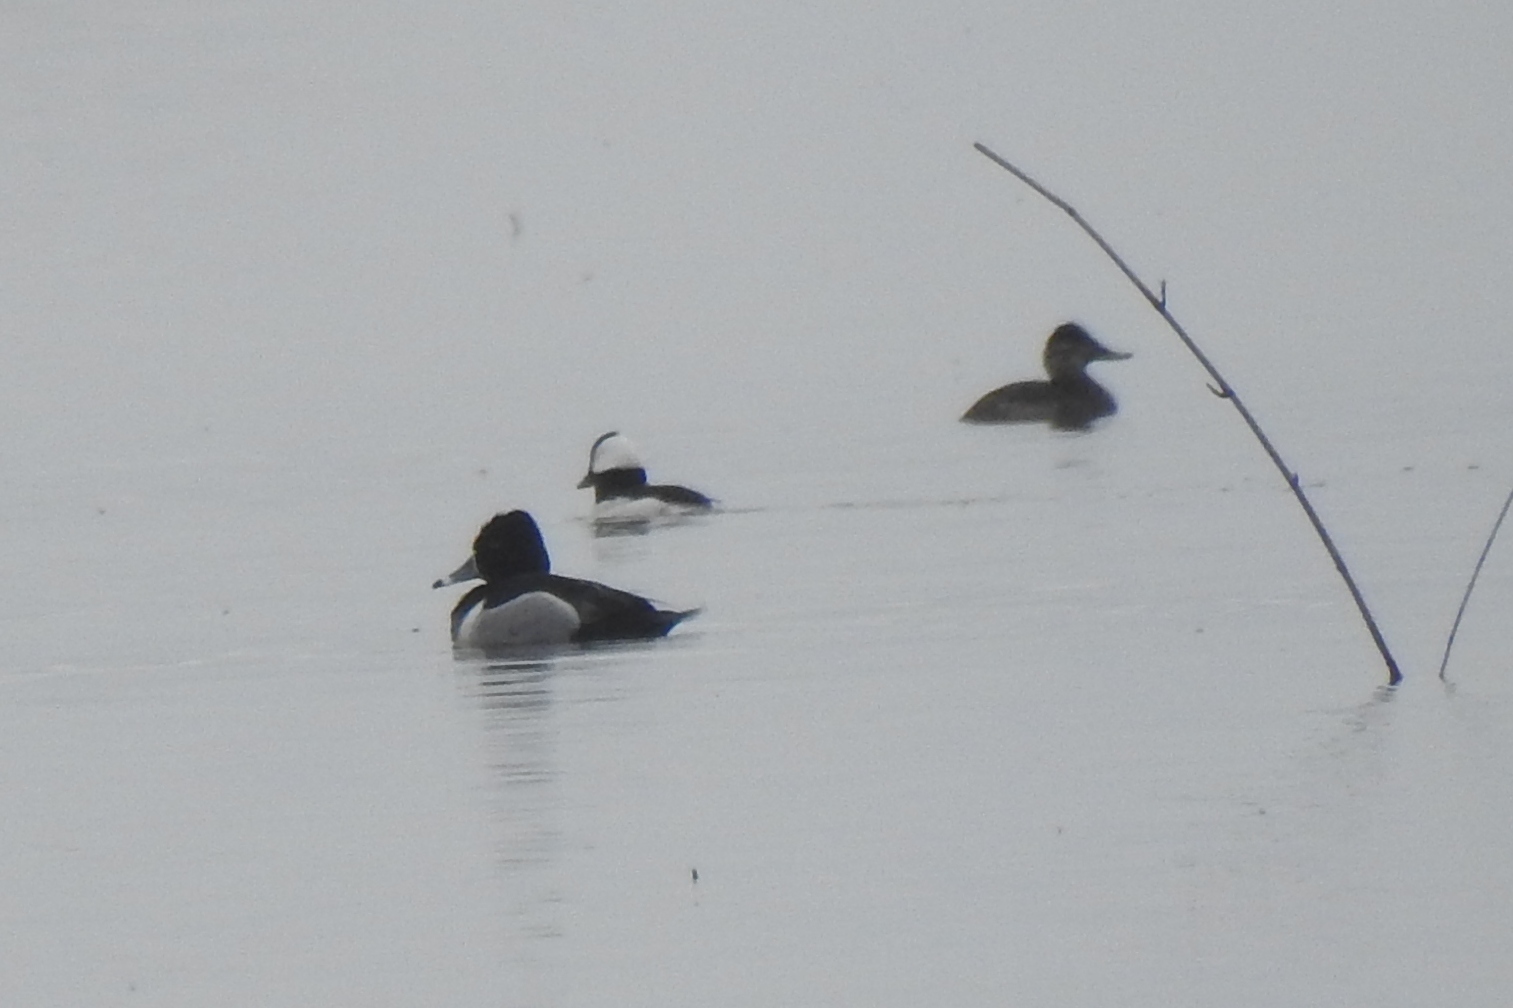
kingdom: Animalia
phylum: Chordata
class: Aves
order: Anseriformes
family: Anatidae
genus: Bucephala
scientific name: Bucephala albeola
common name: Bufflehead
